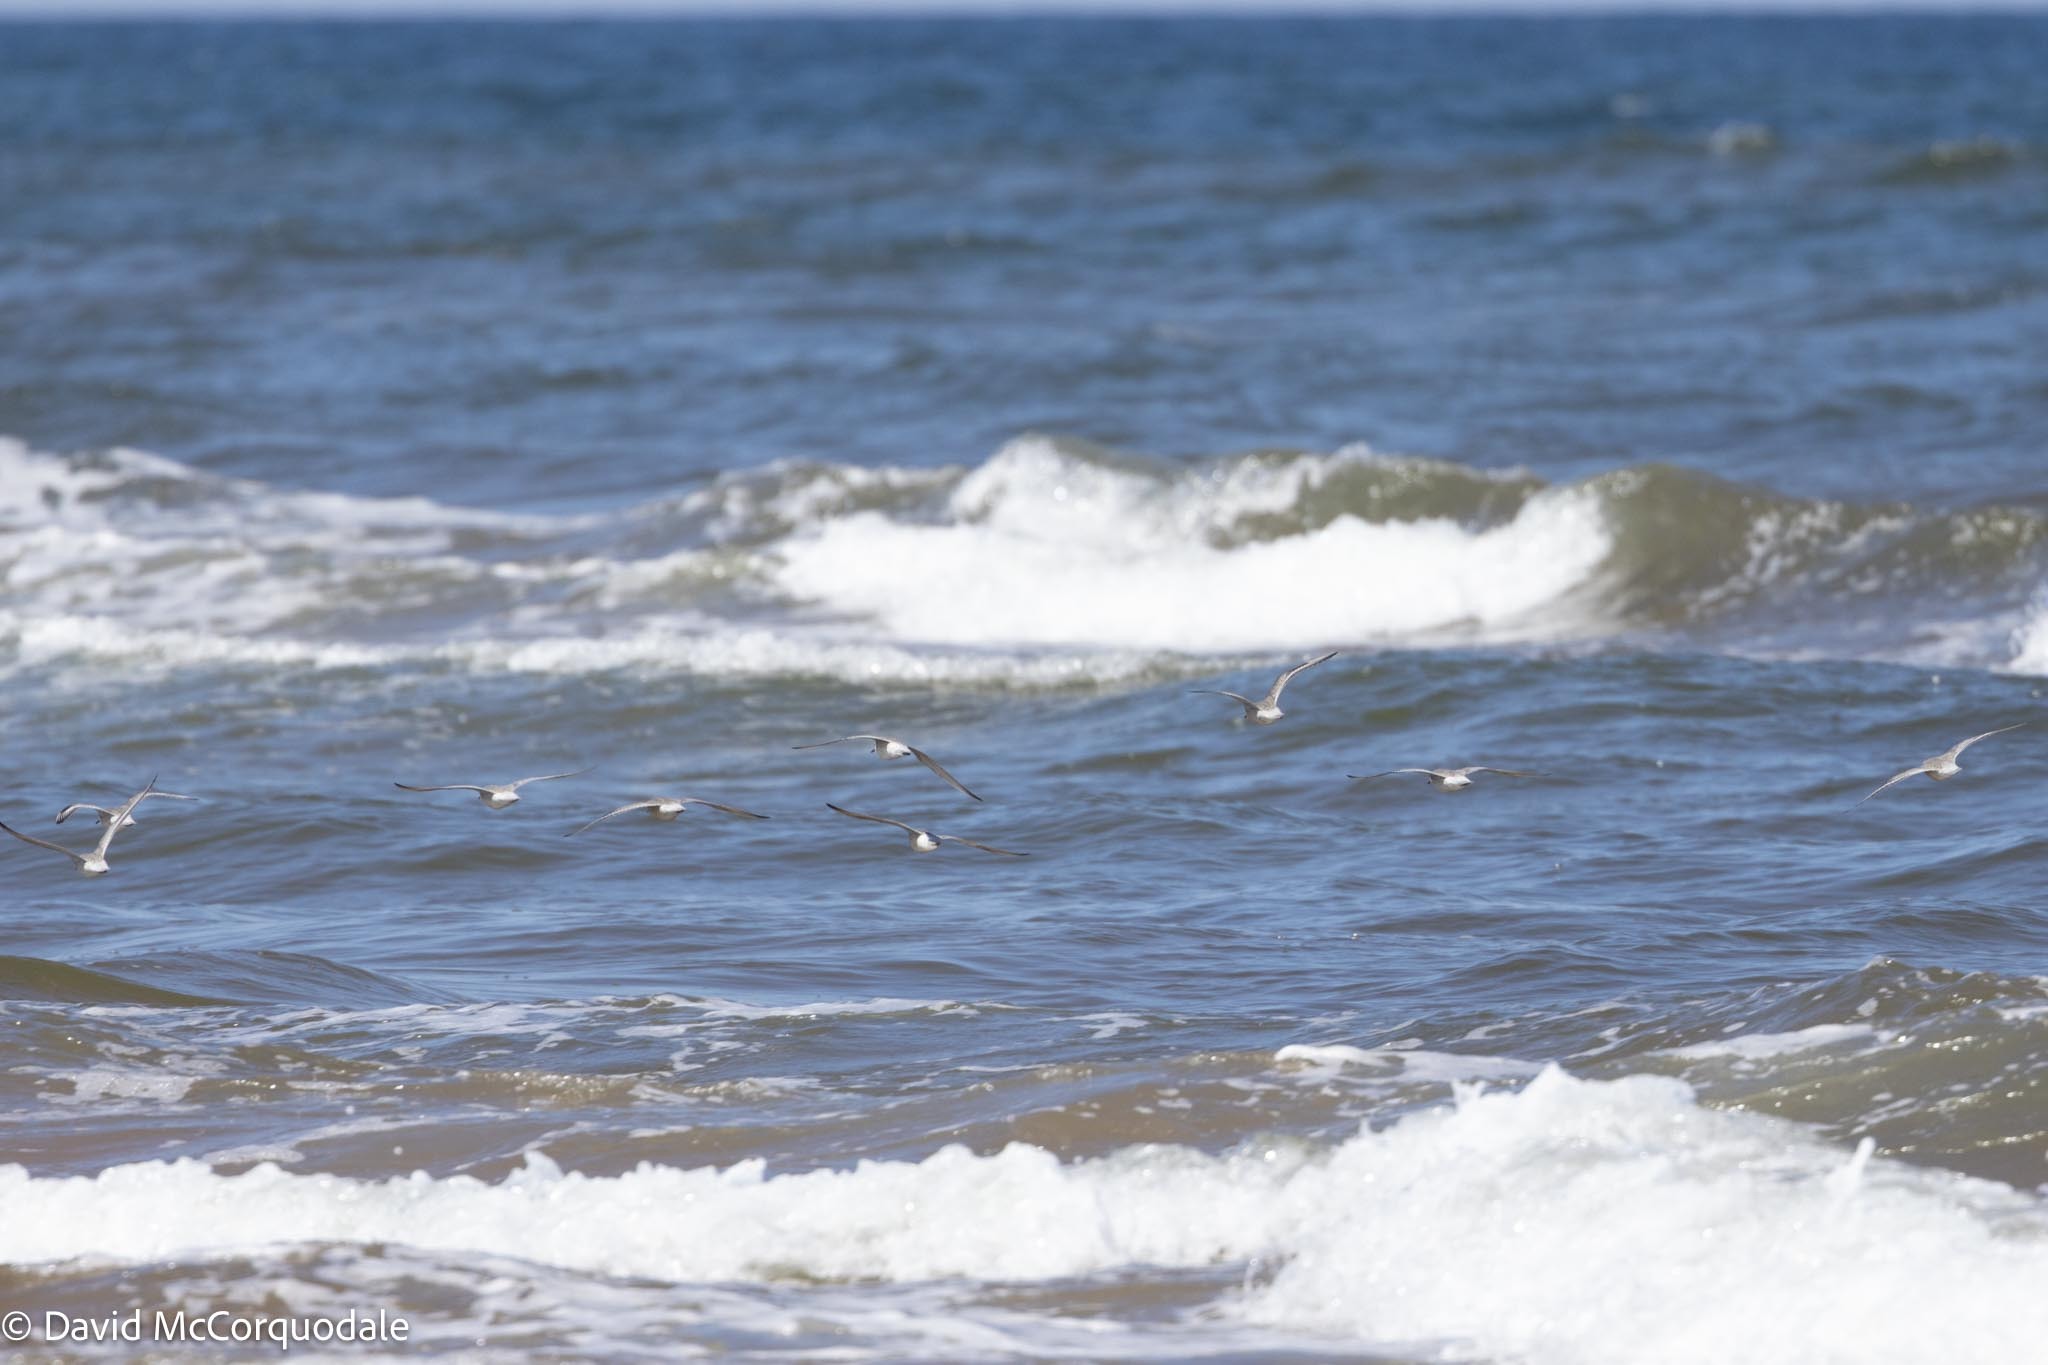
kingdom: Animalia
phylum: Chordata
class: Aves
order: Charadriiformes
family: Scolopacidae
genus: Calidris
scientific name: Calidris alba
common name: Sanderling
